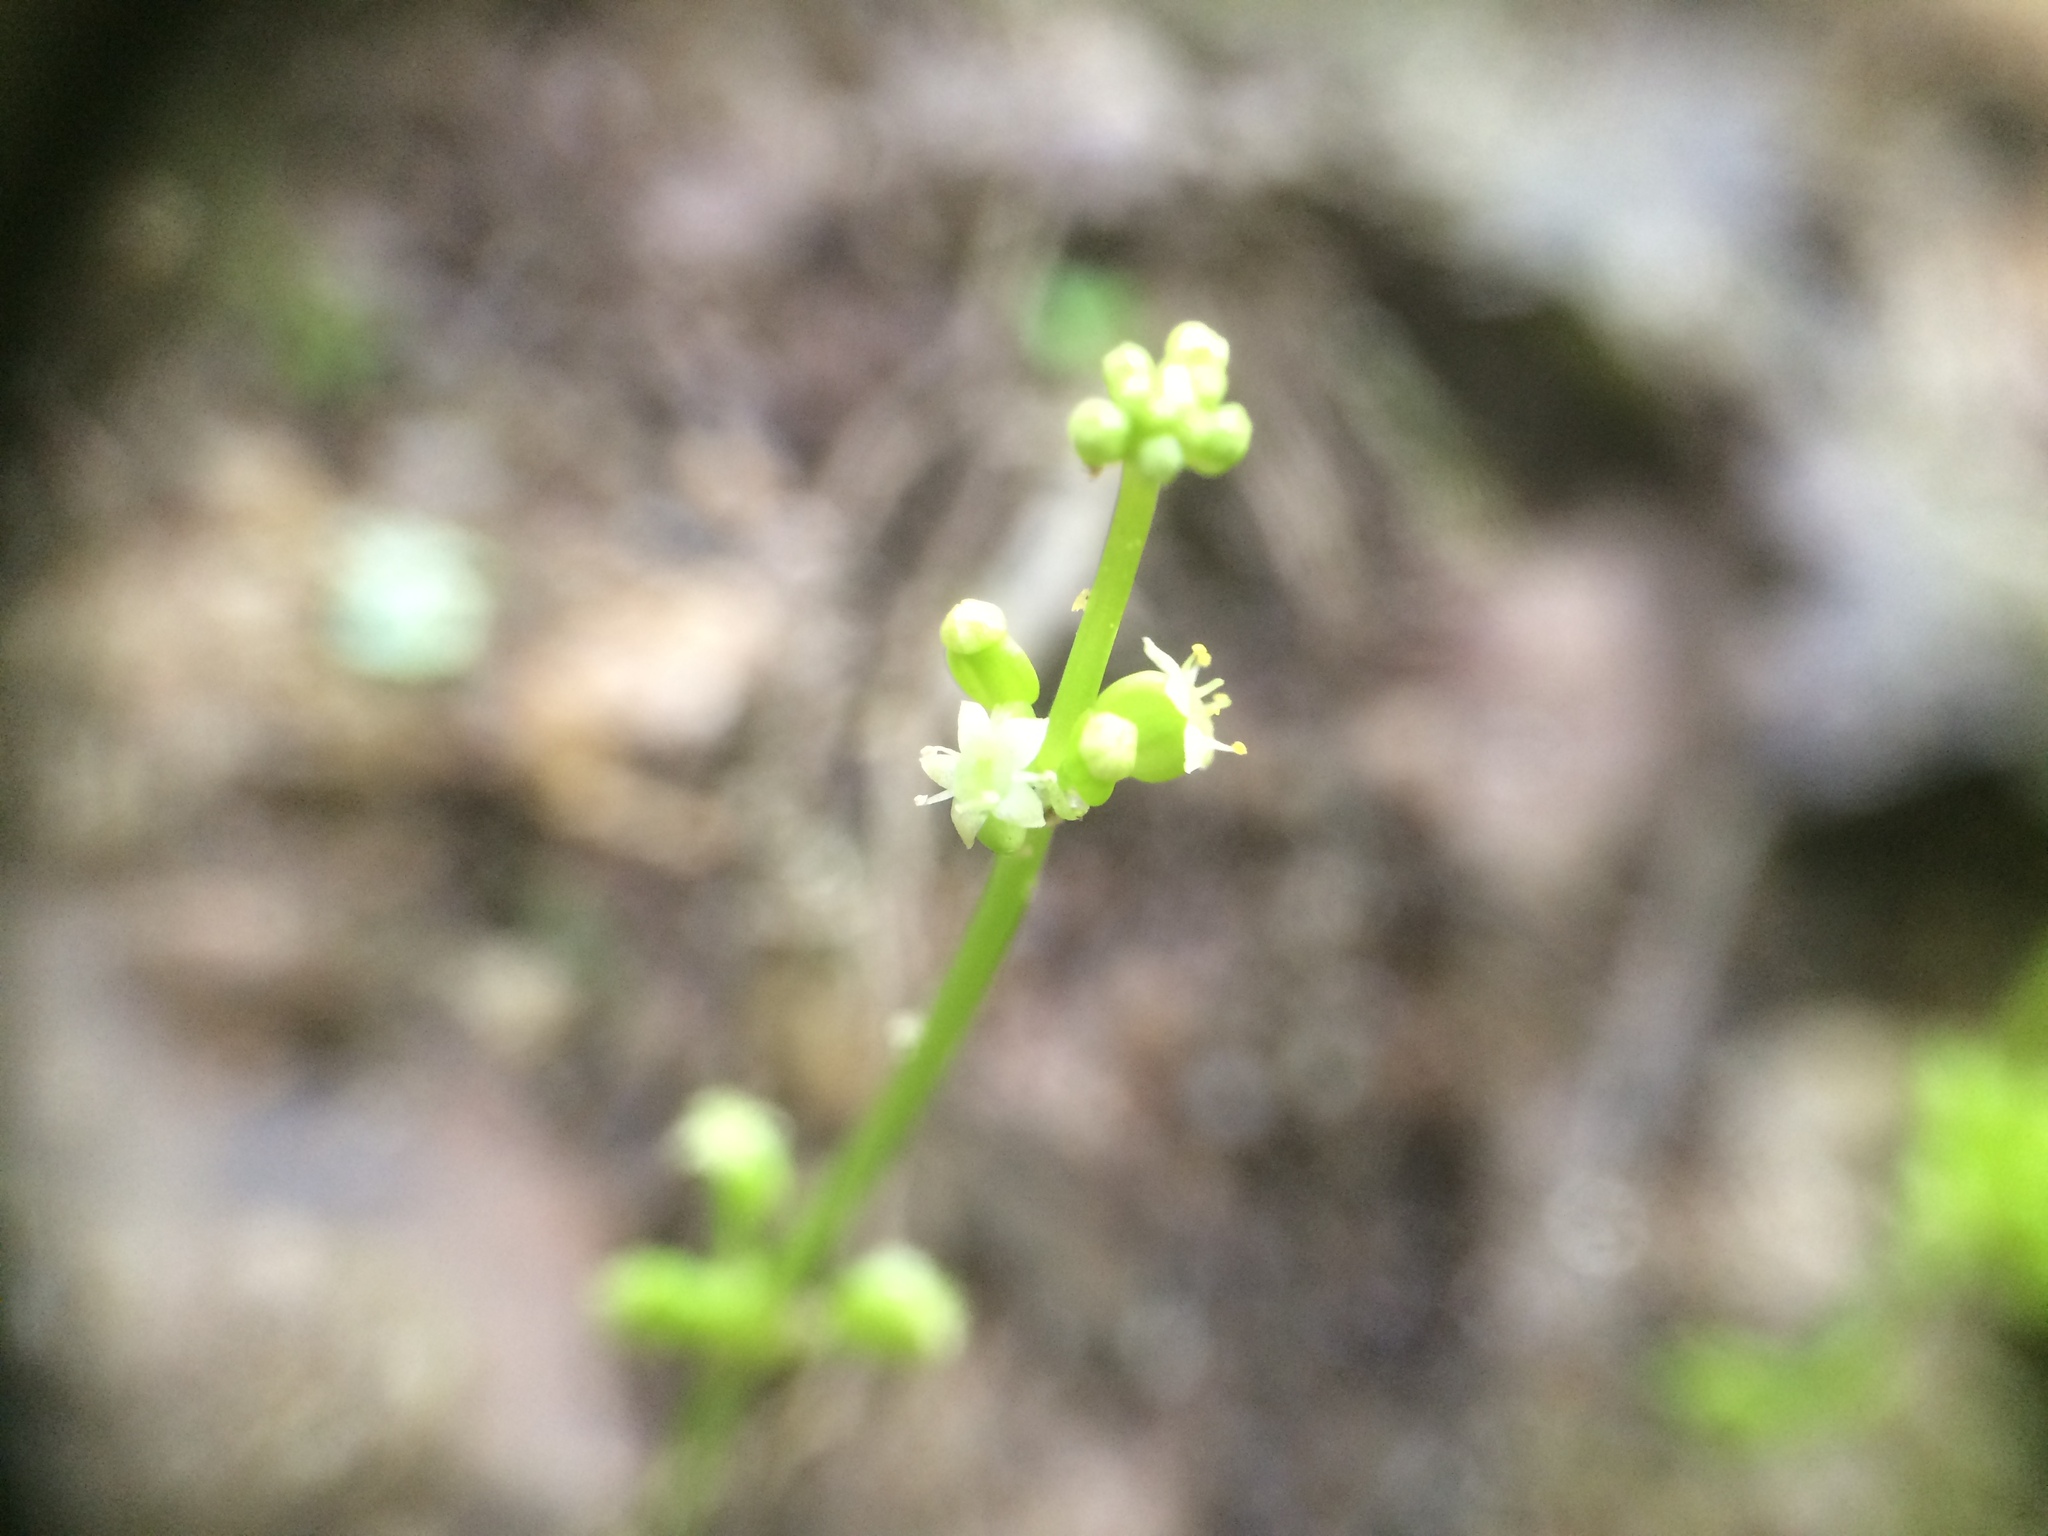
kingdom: Plantae
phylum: Tracheophyta
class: Magnoliopsida
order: Apiales
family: Araliaceae
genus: Hydrocotyle
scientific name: Hydrocotyle verticillata
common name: Whorled marshpennywort
